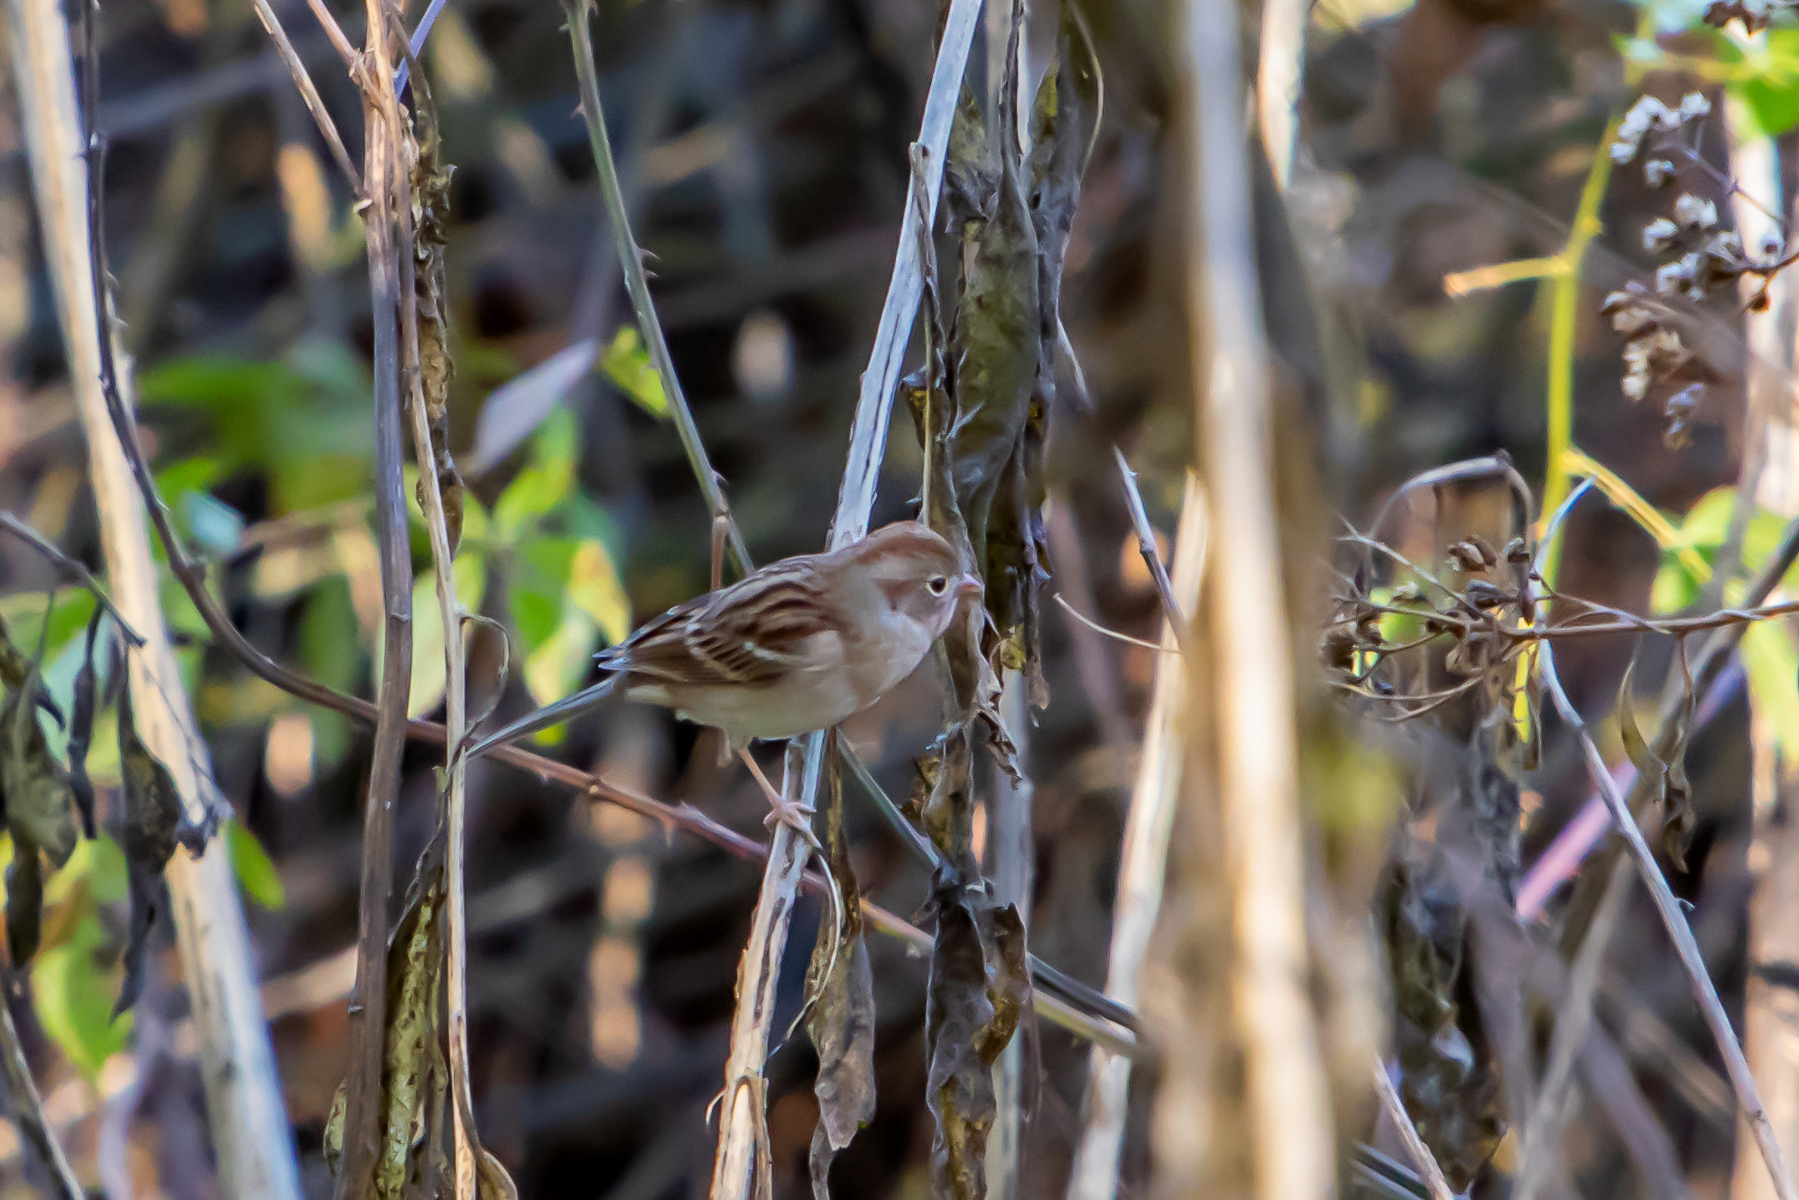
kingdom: Animalia
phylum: Chordata
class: Aves
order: Passeriformes
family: Passerellidae
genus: Spizella
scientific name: Spizella pusilla
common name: Field sparrow
